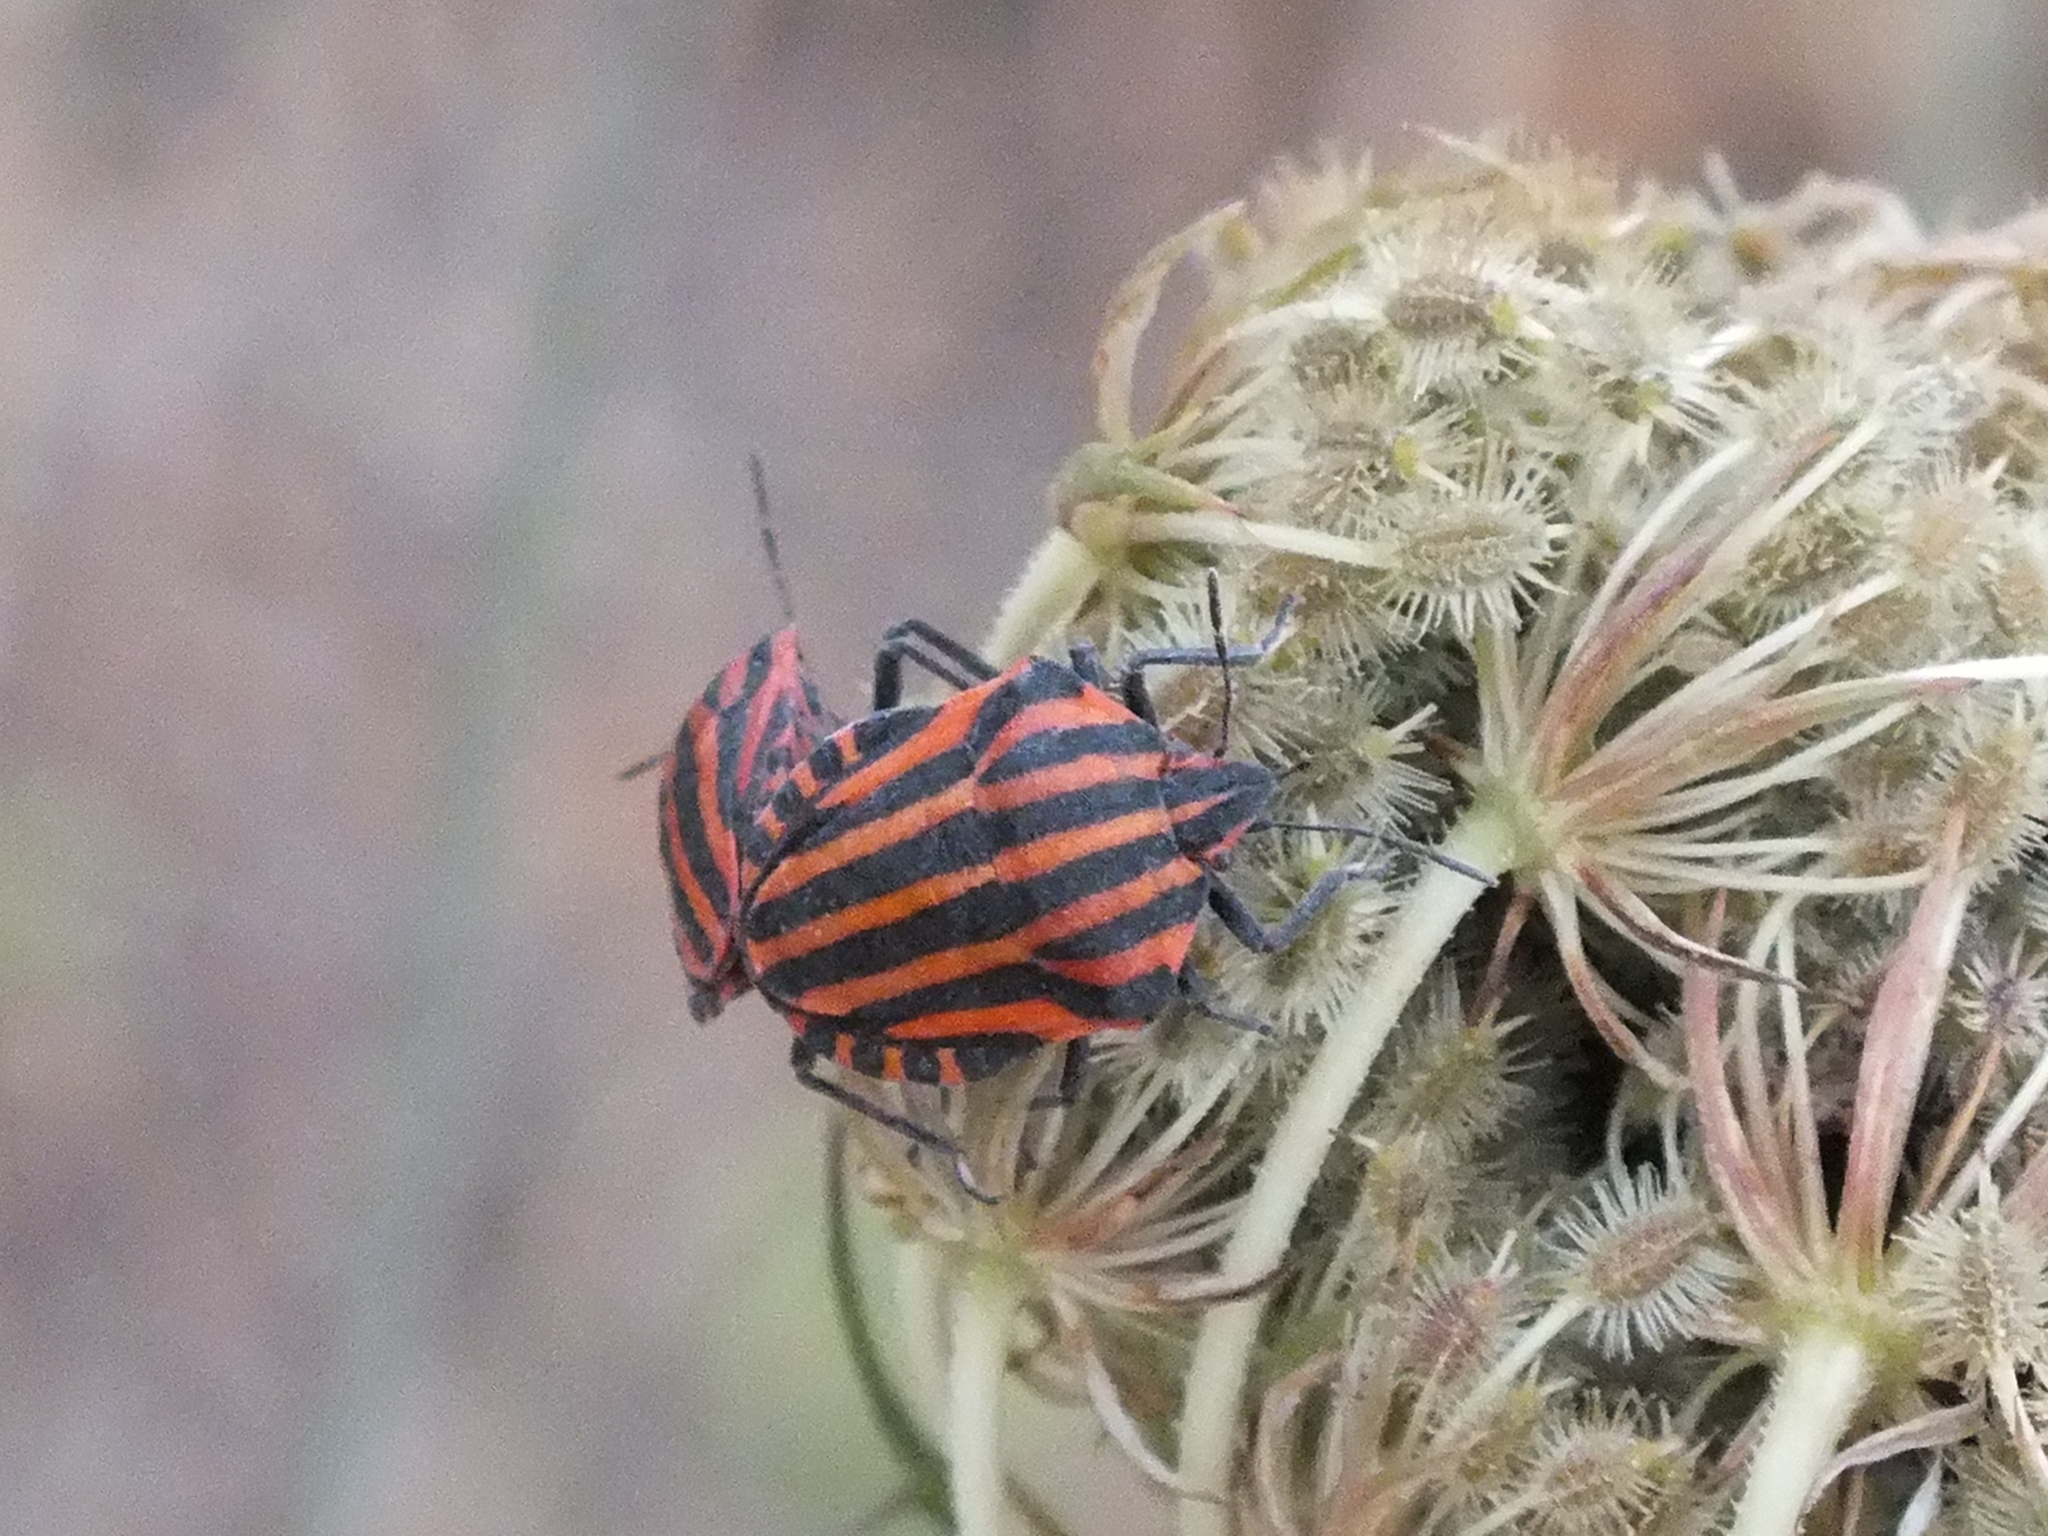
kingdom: Animalia
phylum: Arthropoda
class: Insecta
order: Hemiptera
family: Pentatomidae
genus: Graphosoma
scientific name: Graphosoma italicum
